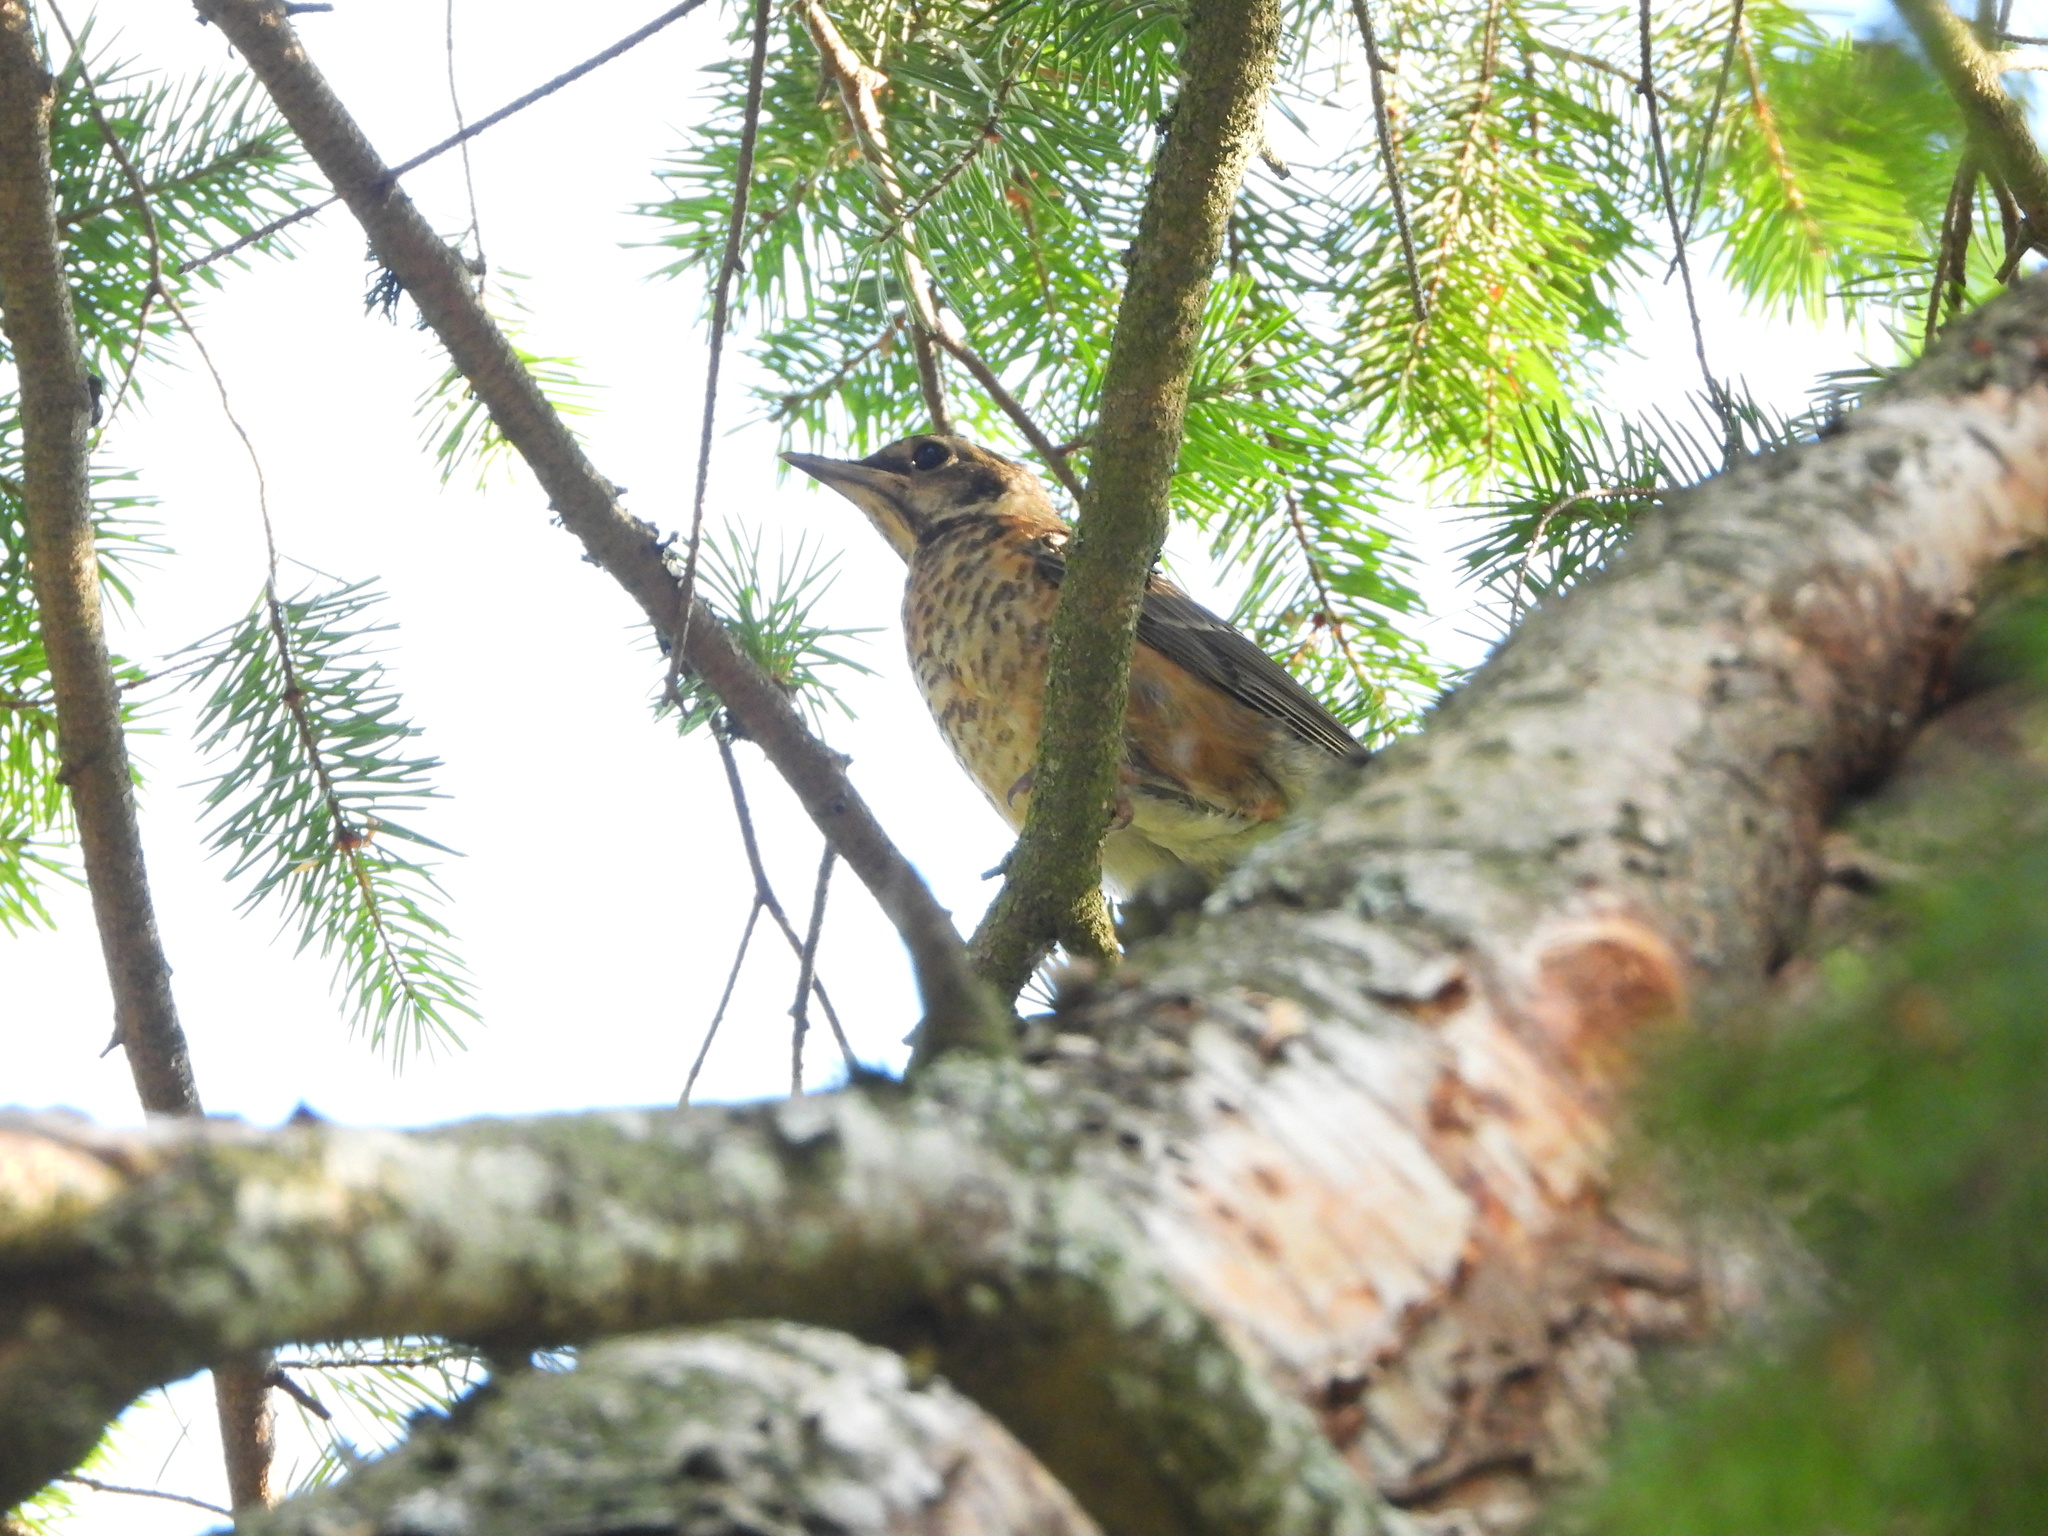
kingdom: Animalia
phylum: Chordata
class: Aves
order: Passeriformes
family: Turdidae
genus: Turdus
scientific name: Turdus migratorius
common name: American robin
